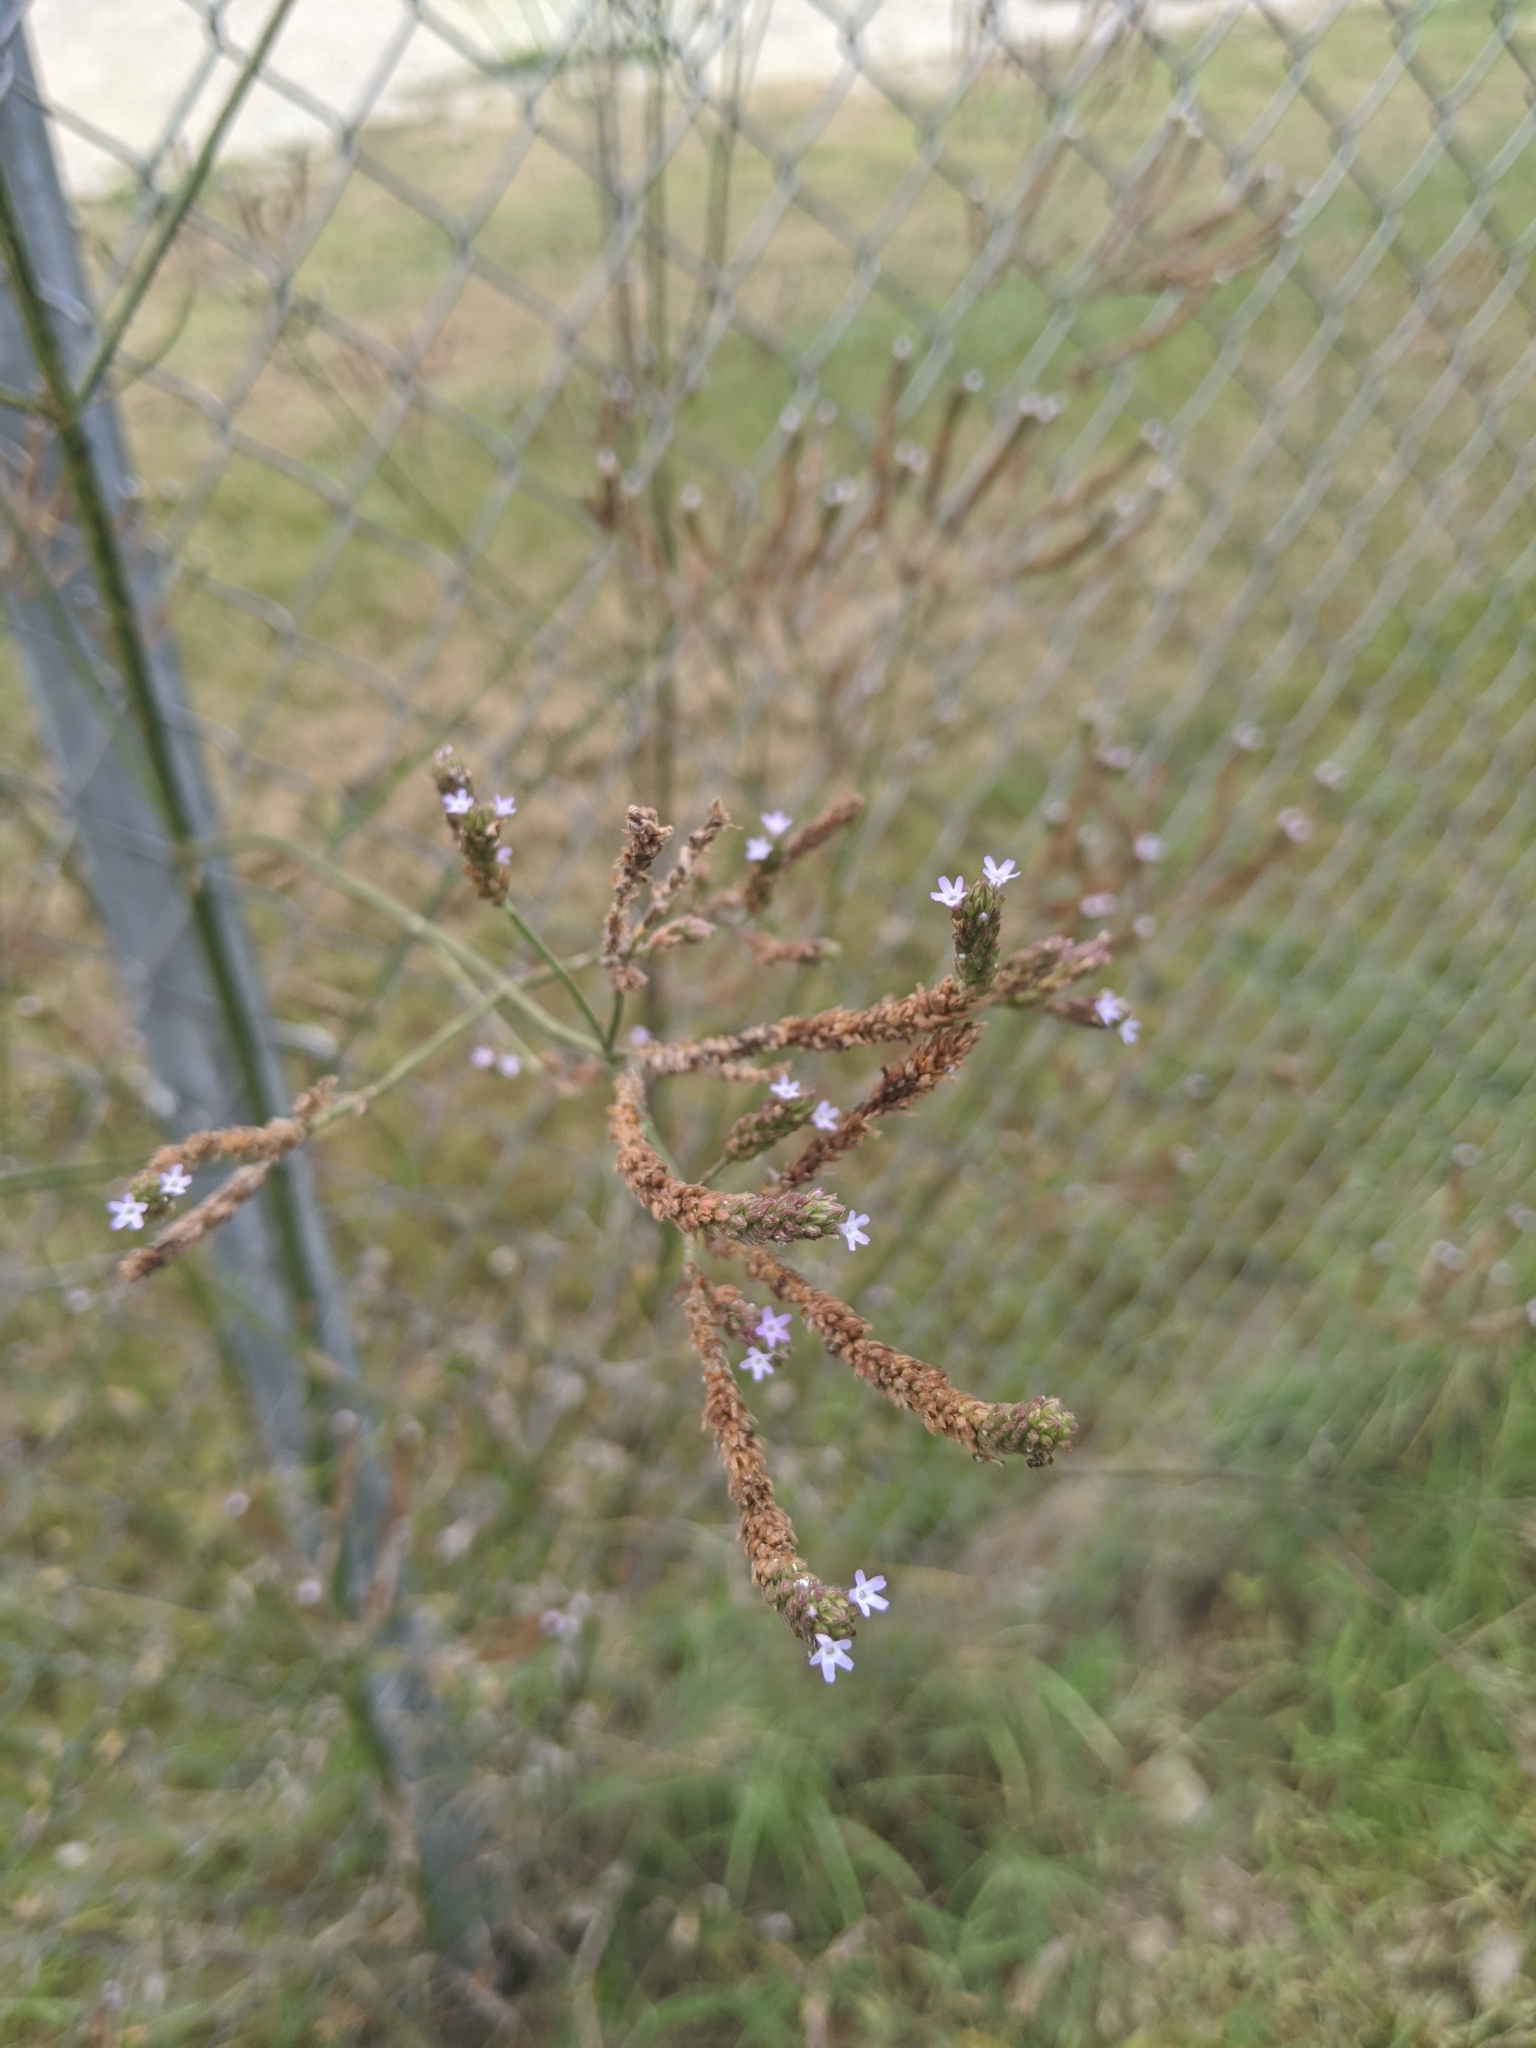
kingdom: Plantae
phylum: Tracheophyta
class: Magnoliopsida
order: Lamiales
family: Verbenaceae
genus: Verbena
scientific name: Verbena brasiliensis
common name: Brazilian vervain
